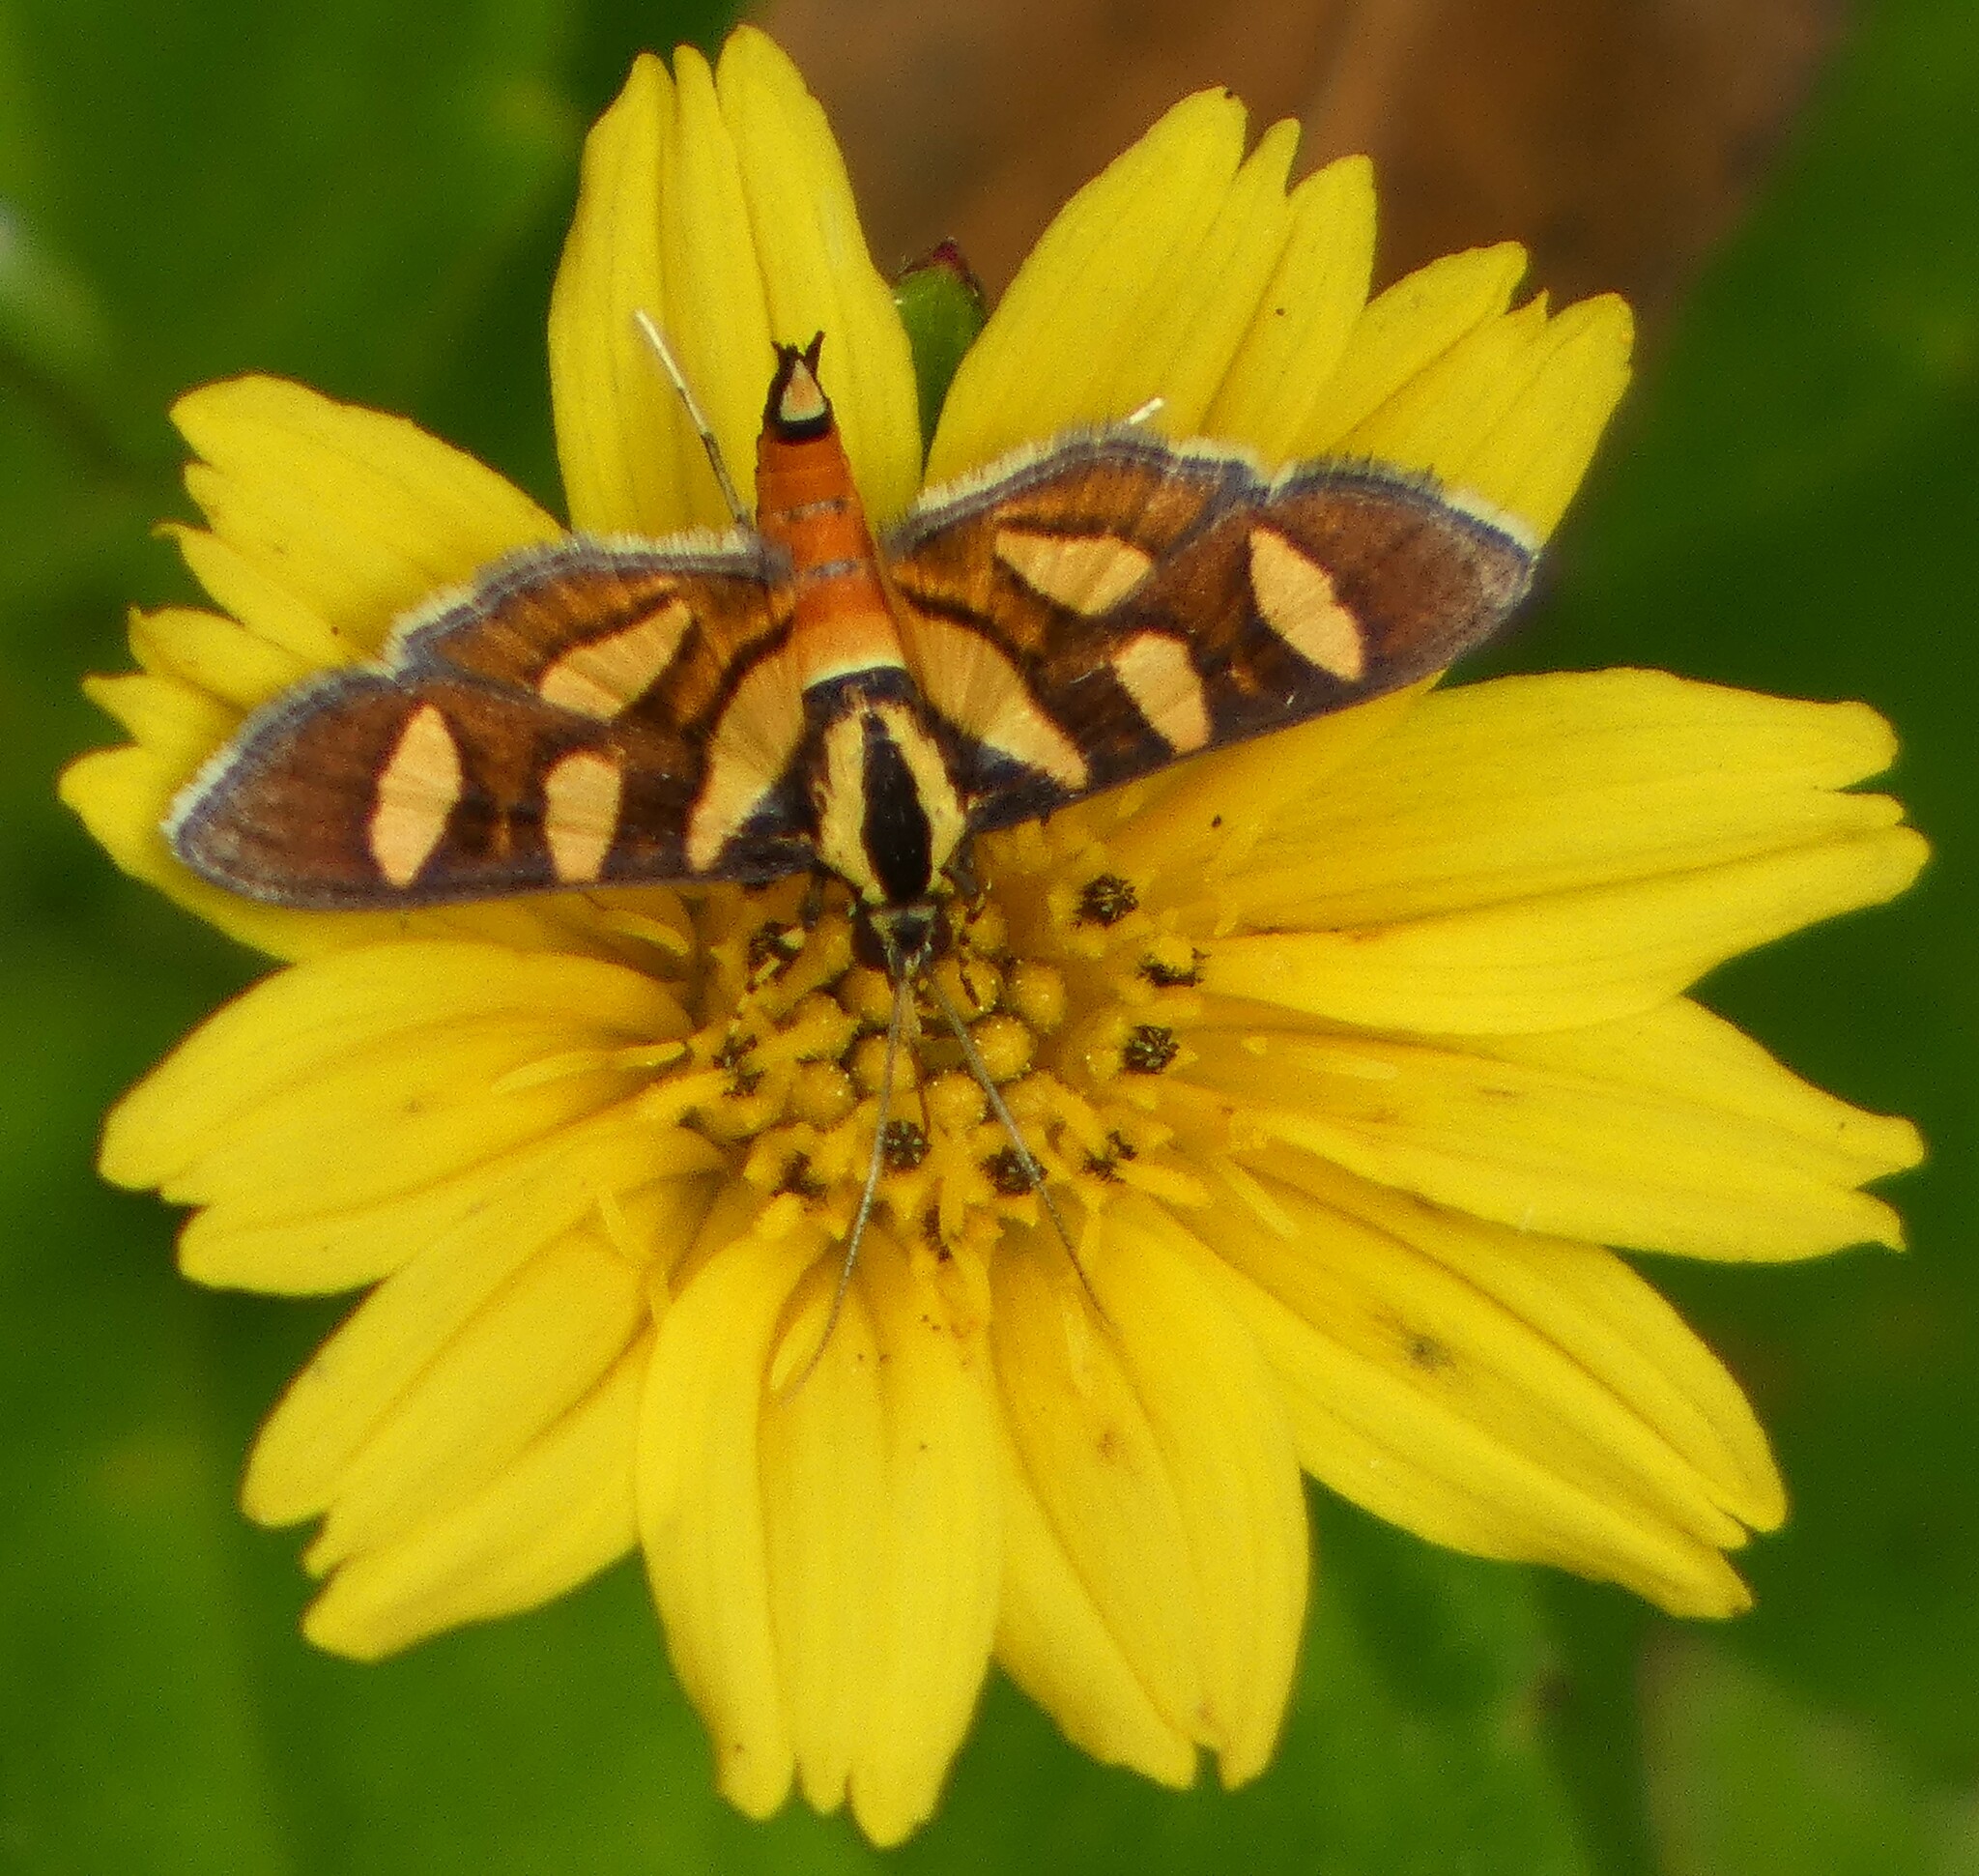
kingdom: Animalia
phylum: Arthropoda
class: Insecta
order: Lepidoptera
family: Crambidae
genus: Syngamia
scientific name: Syngamia florella
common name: Orange-spotted flower moth
